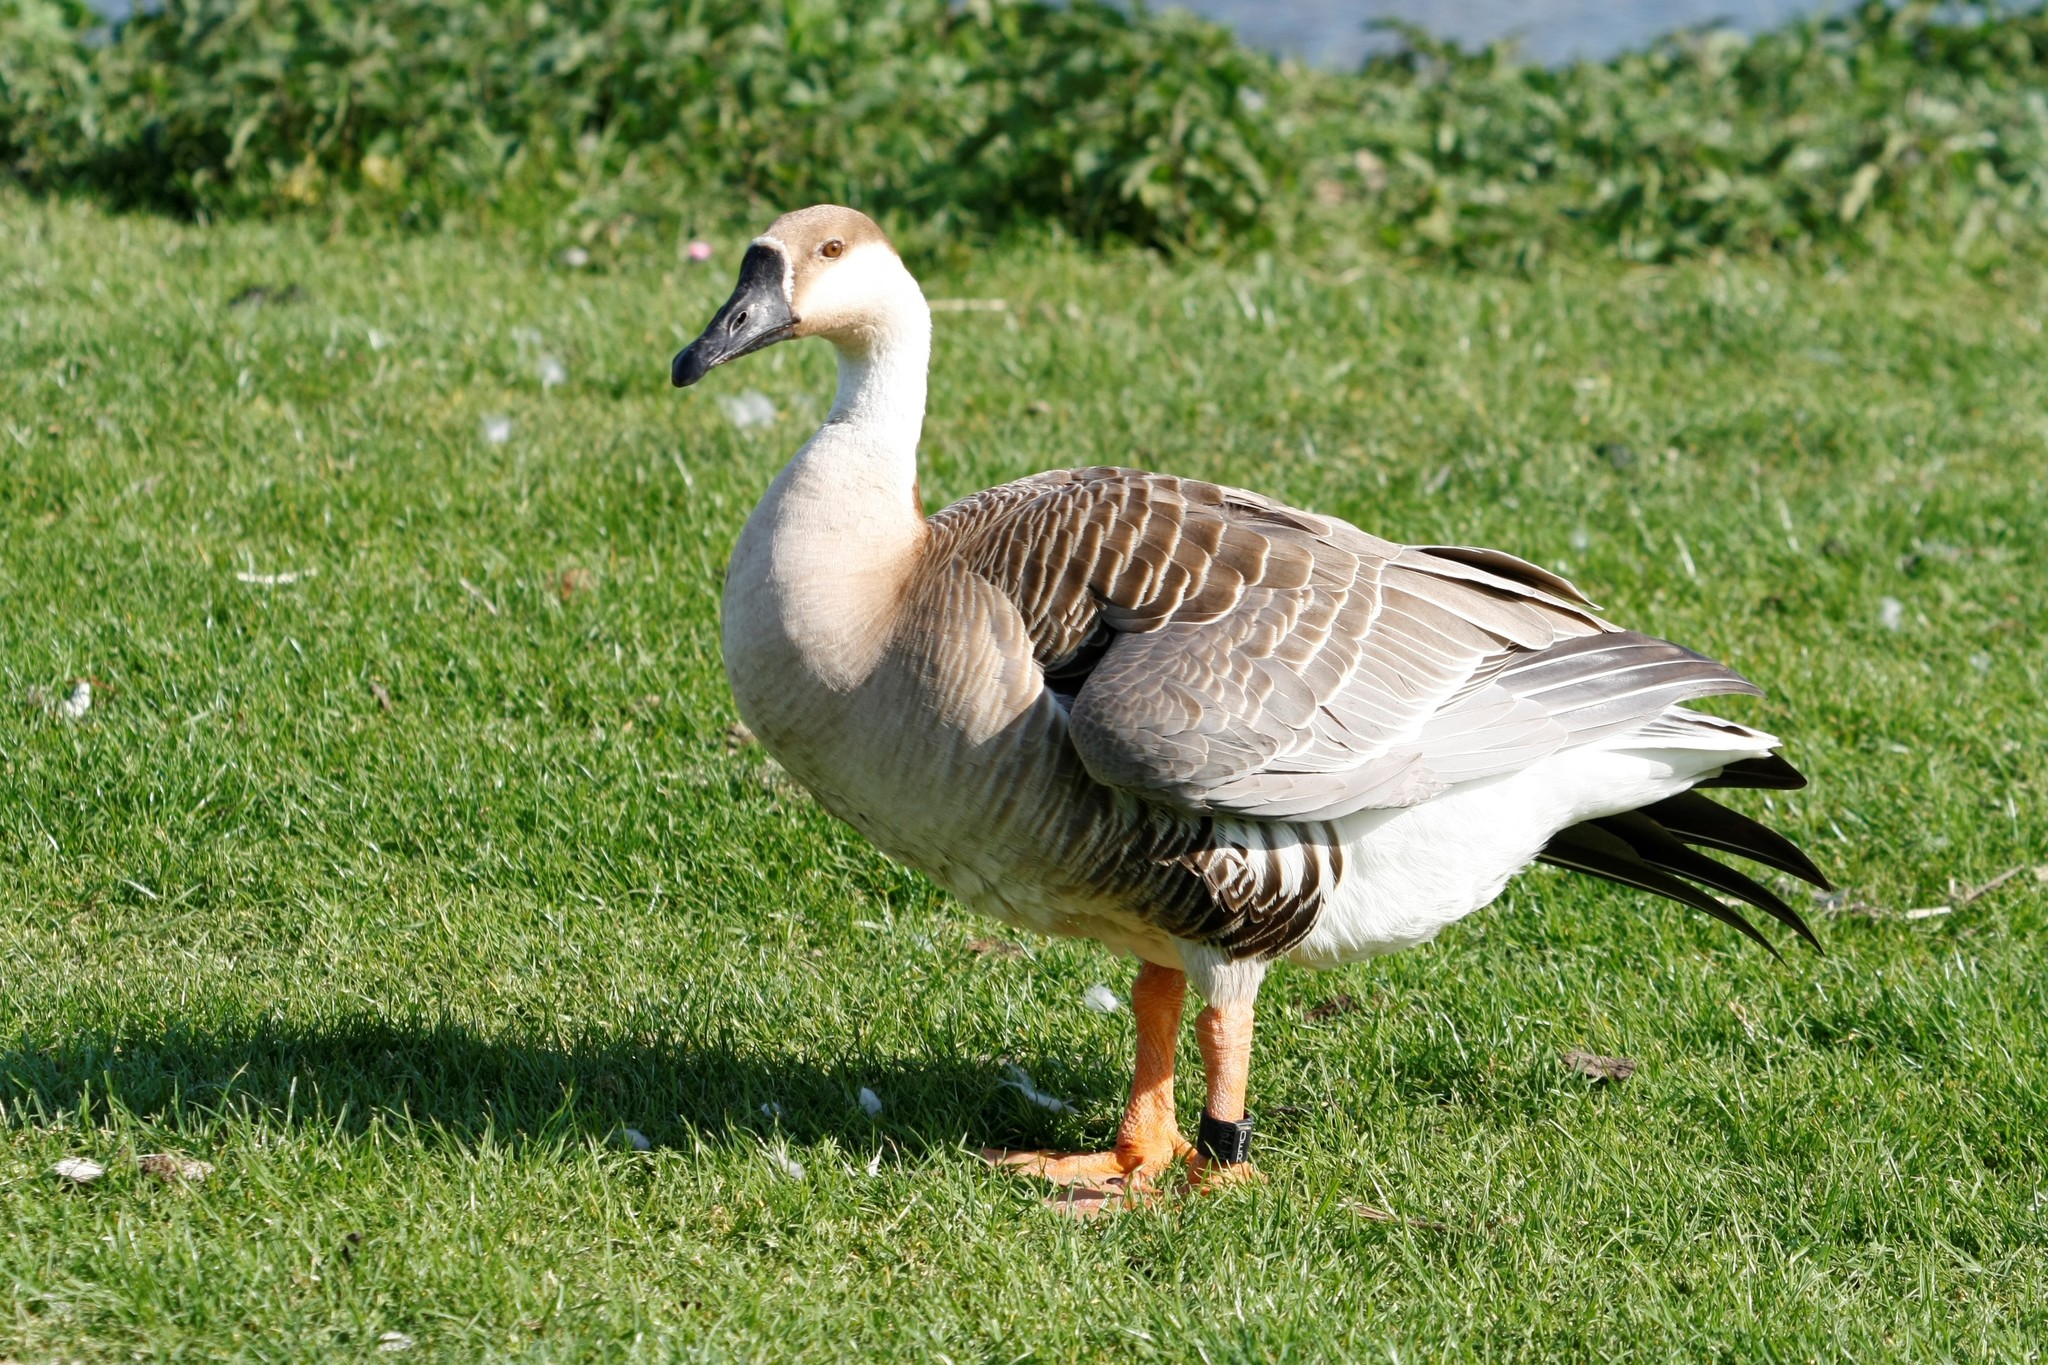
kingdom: Animalia
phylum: Chordata
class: Aves
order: Anseriformes
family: Anatidae
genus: Anser
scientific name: Anser cygnoides
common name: Swan goose
